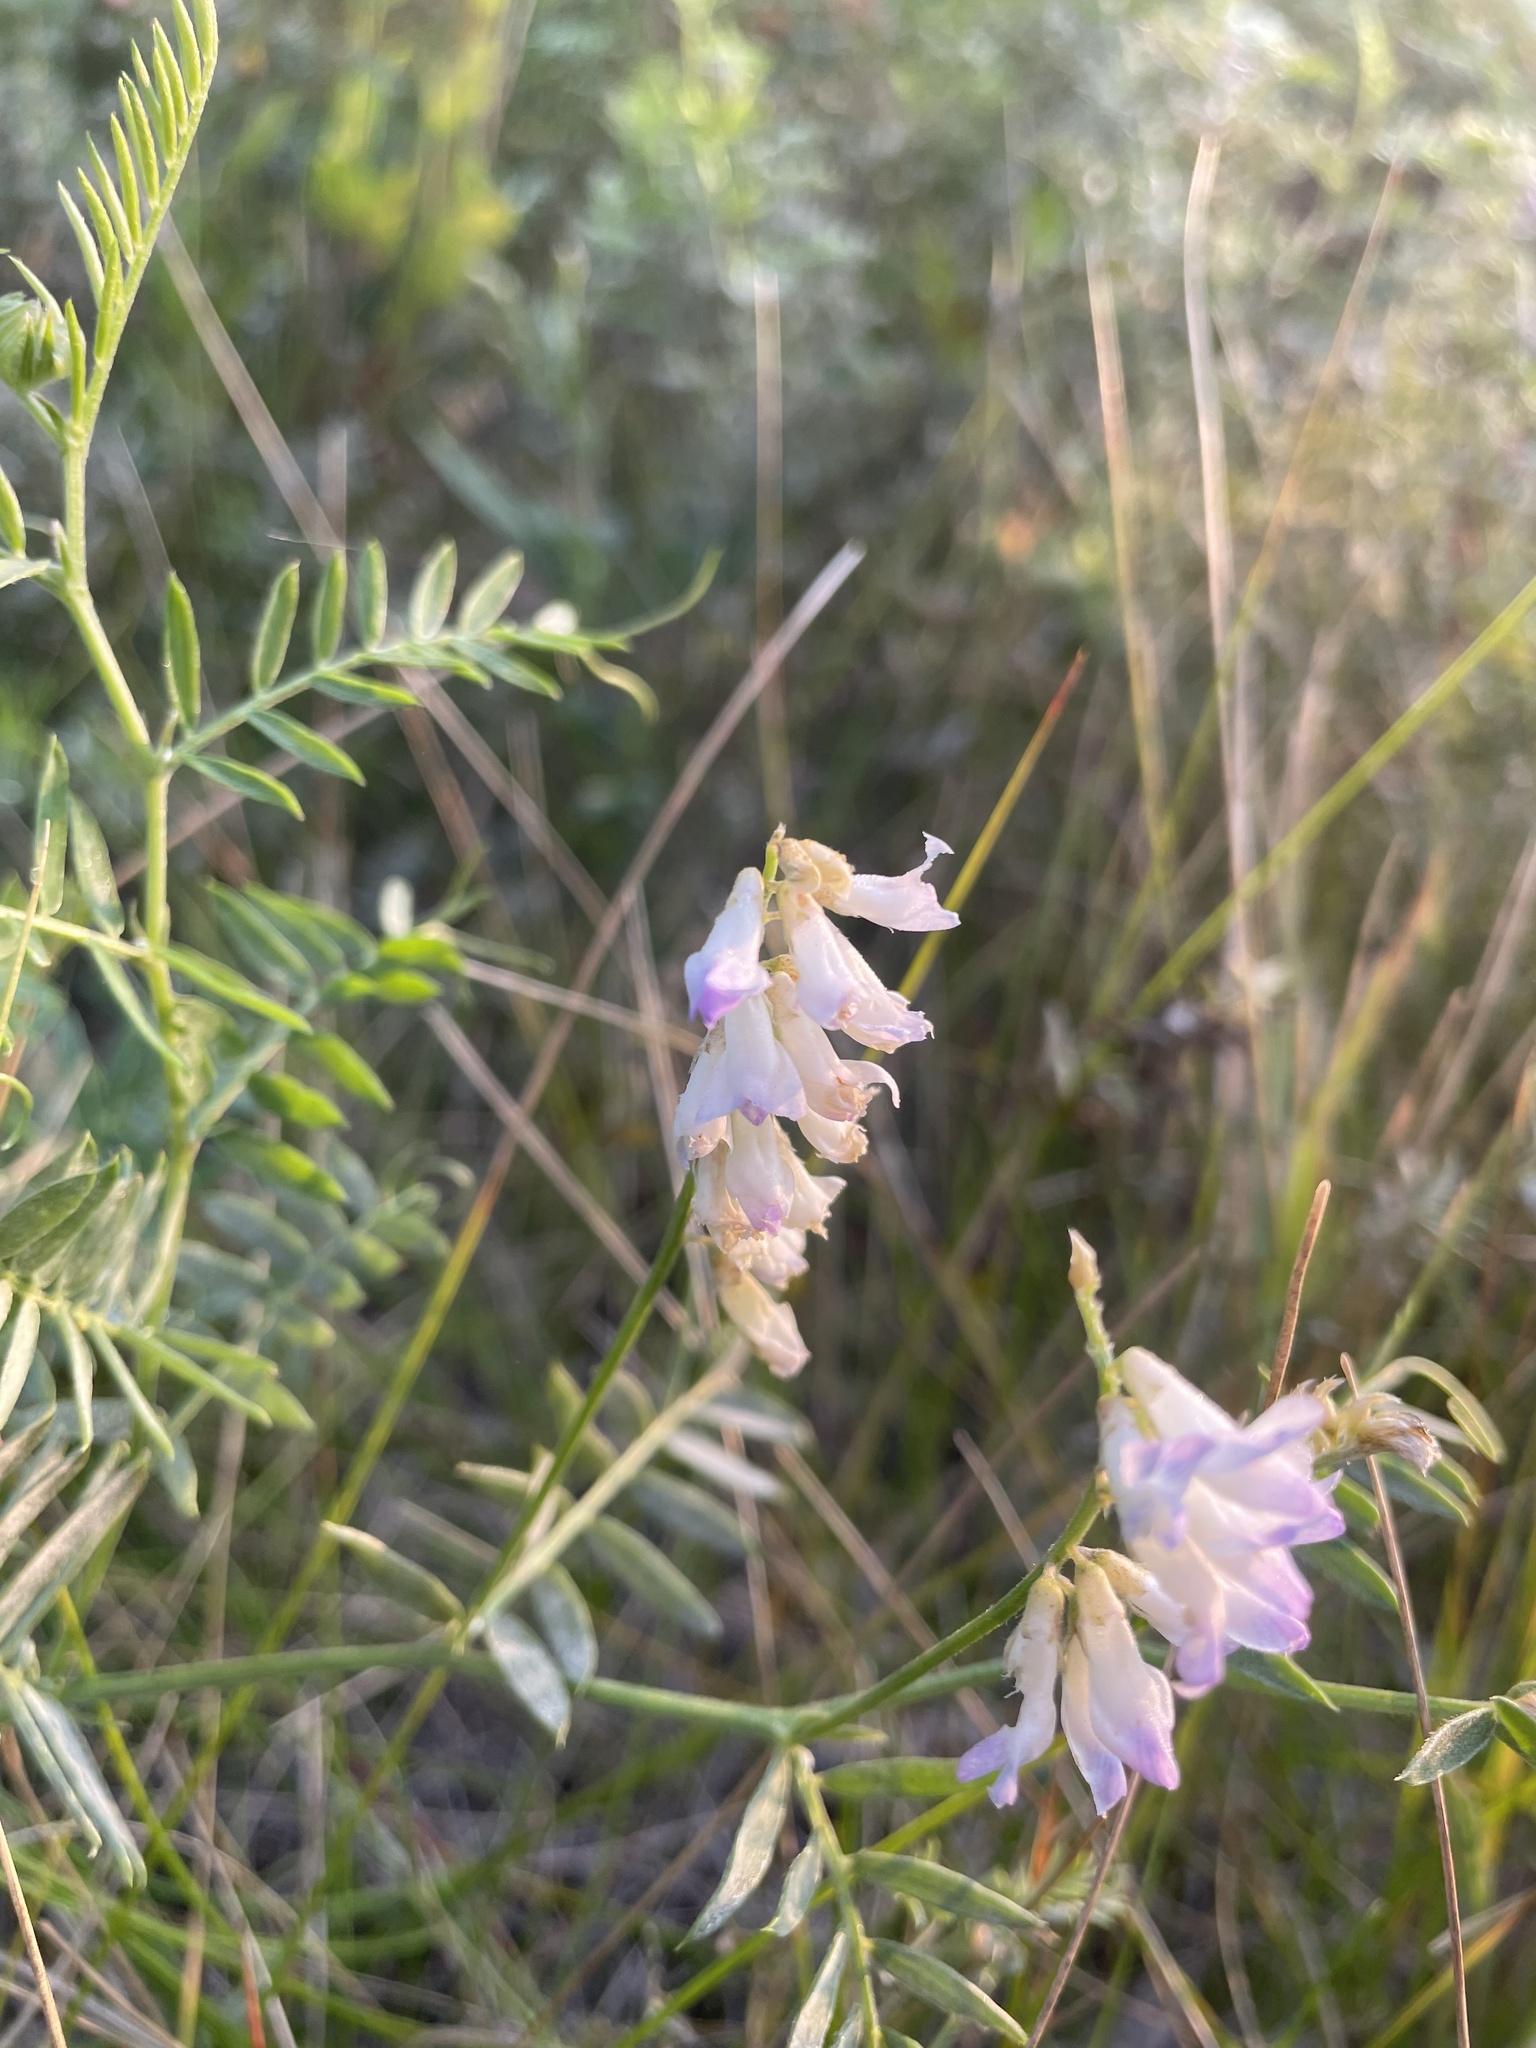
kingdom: Plantae
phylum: Tracheophyta
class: Magnoliopsida
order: Fabales
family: Fabaceae
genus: Vicia
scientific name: Vicia cracca
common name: Bird vetch
